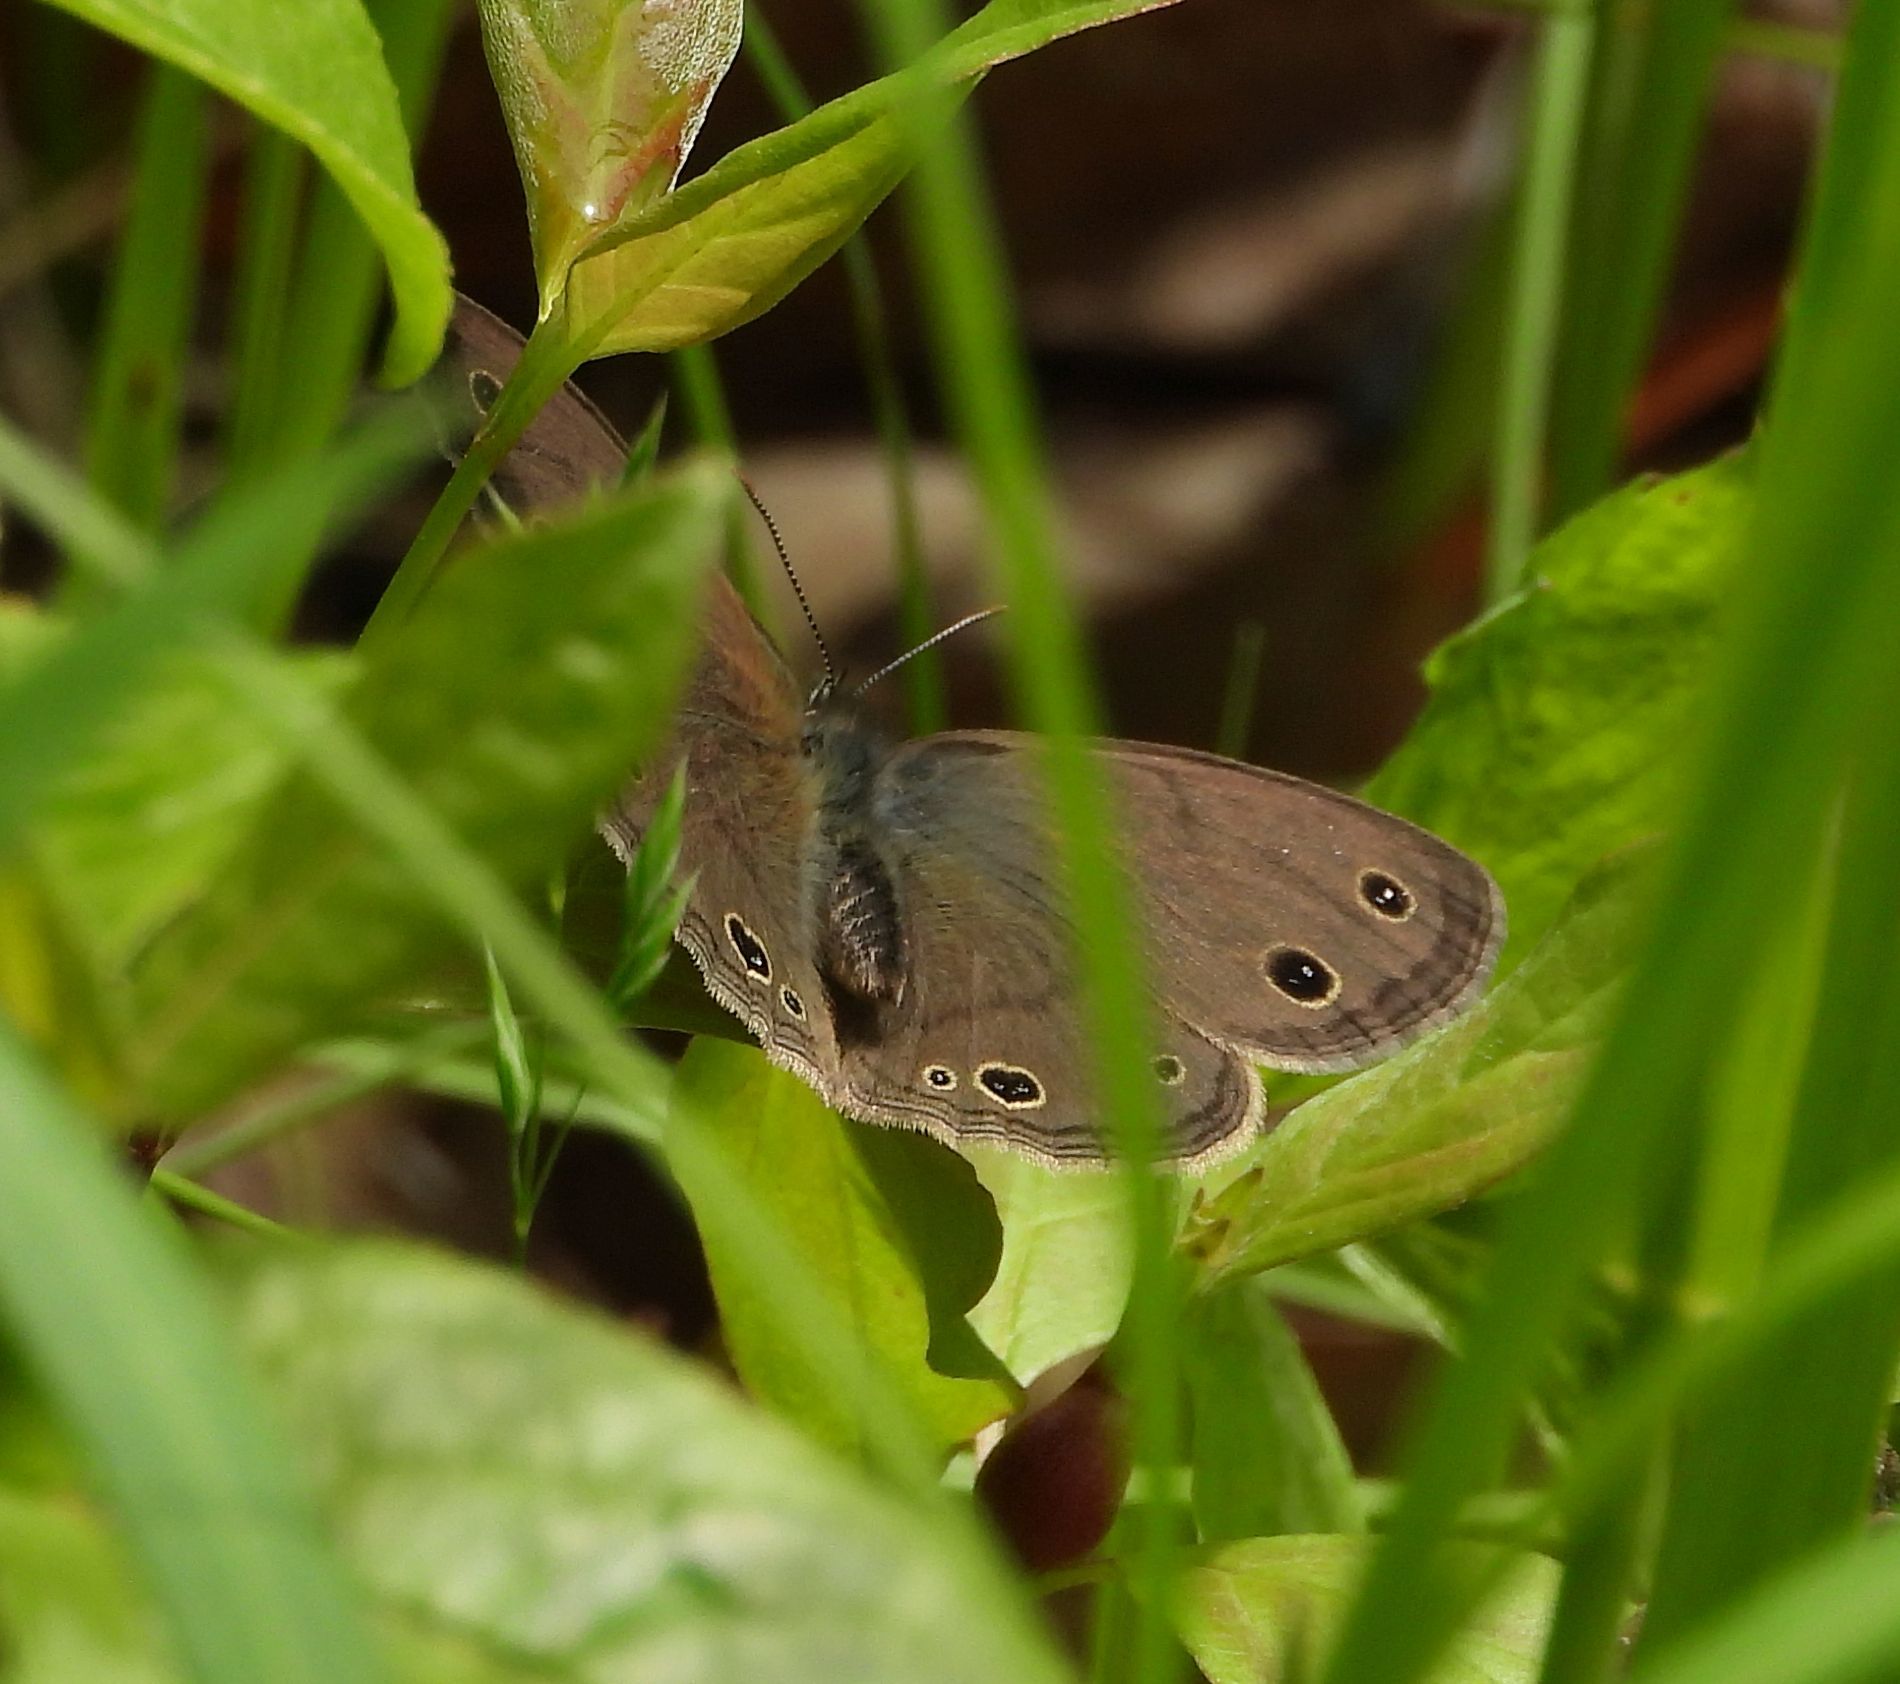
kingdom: Animalia
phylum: Arthropoda
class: Insecta
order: Lepidoptera
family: Nymphalidae
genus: Euptychia
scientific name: Euptychia cymela
